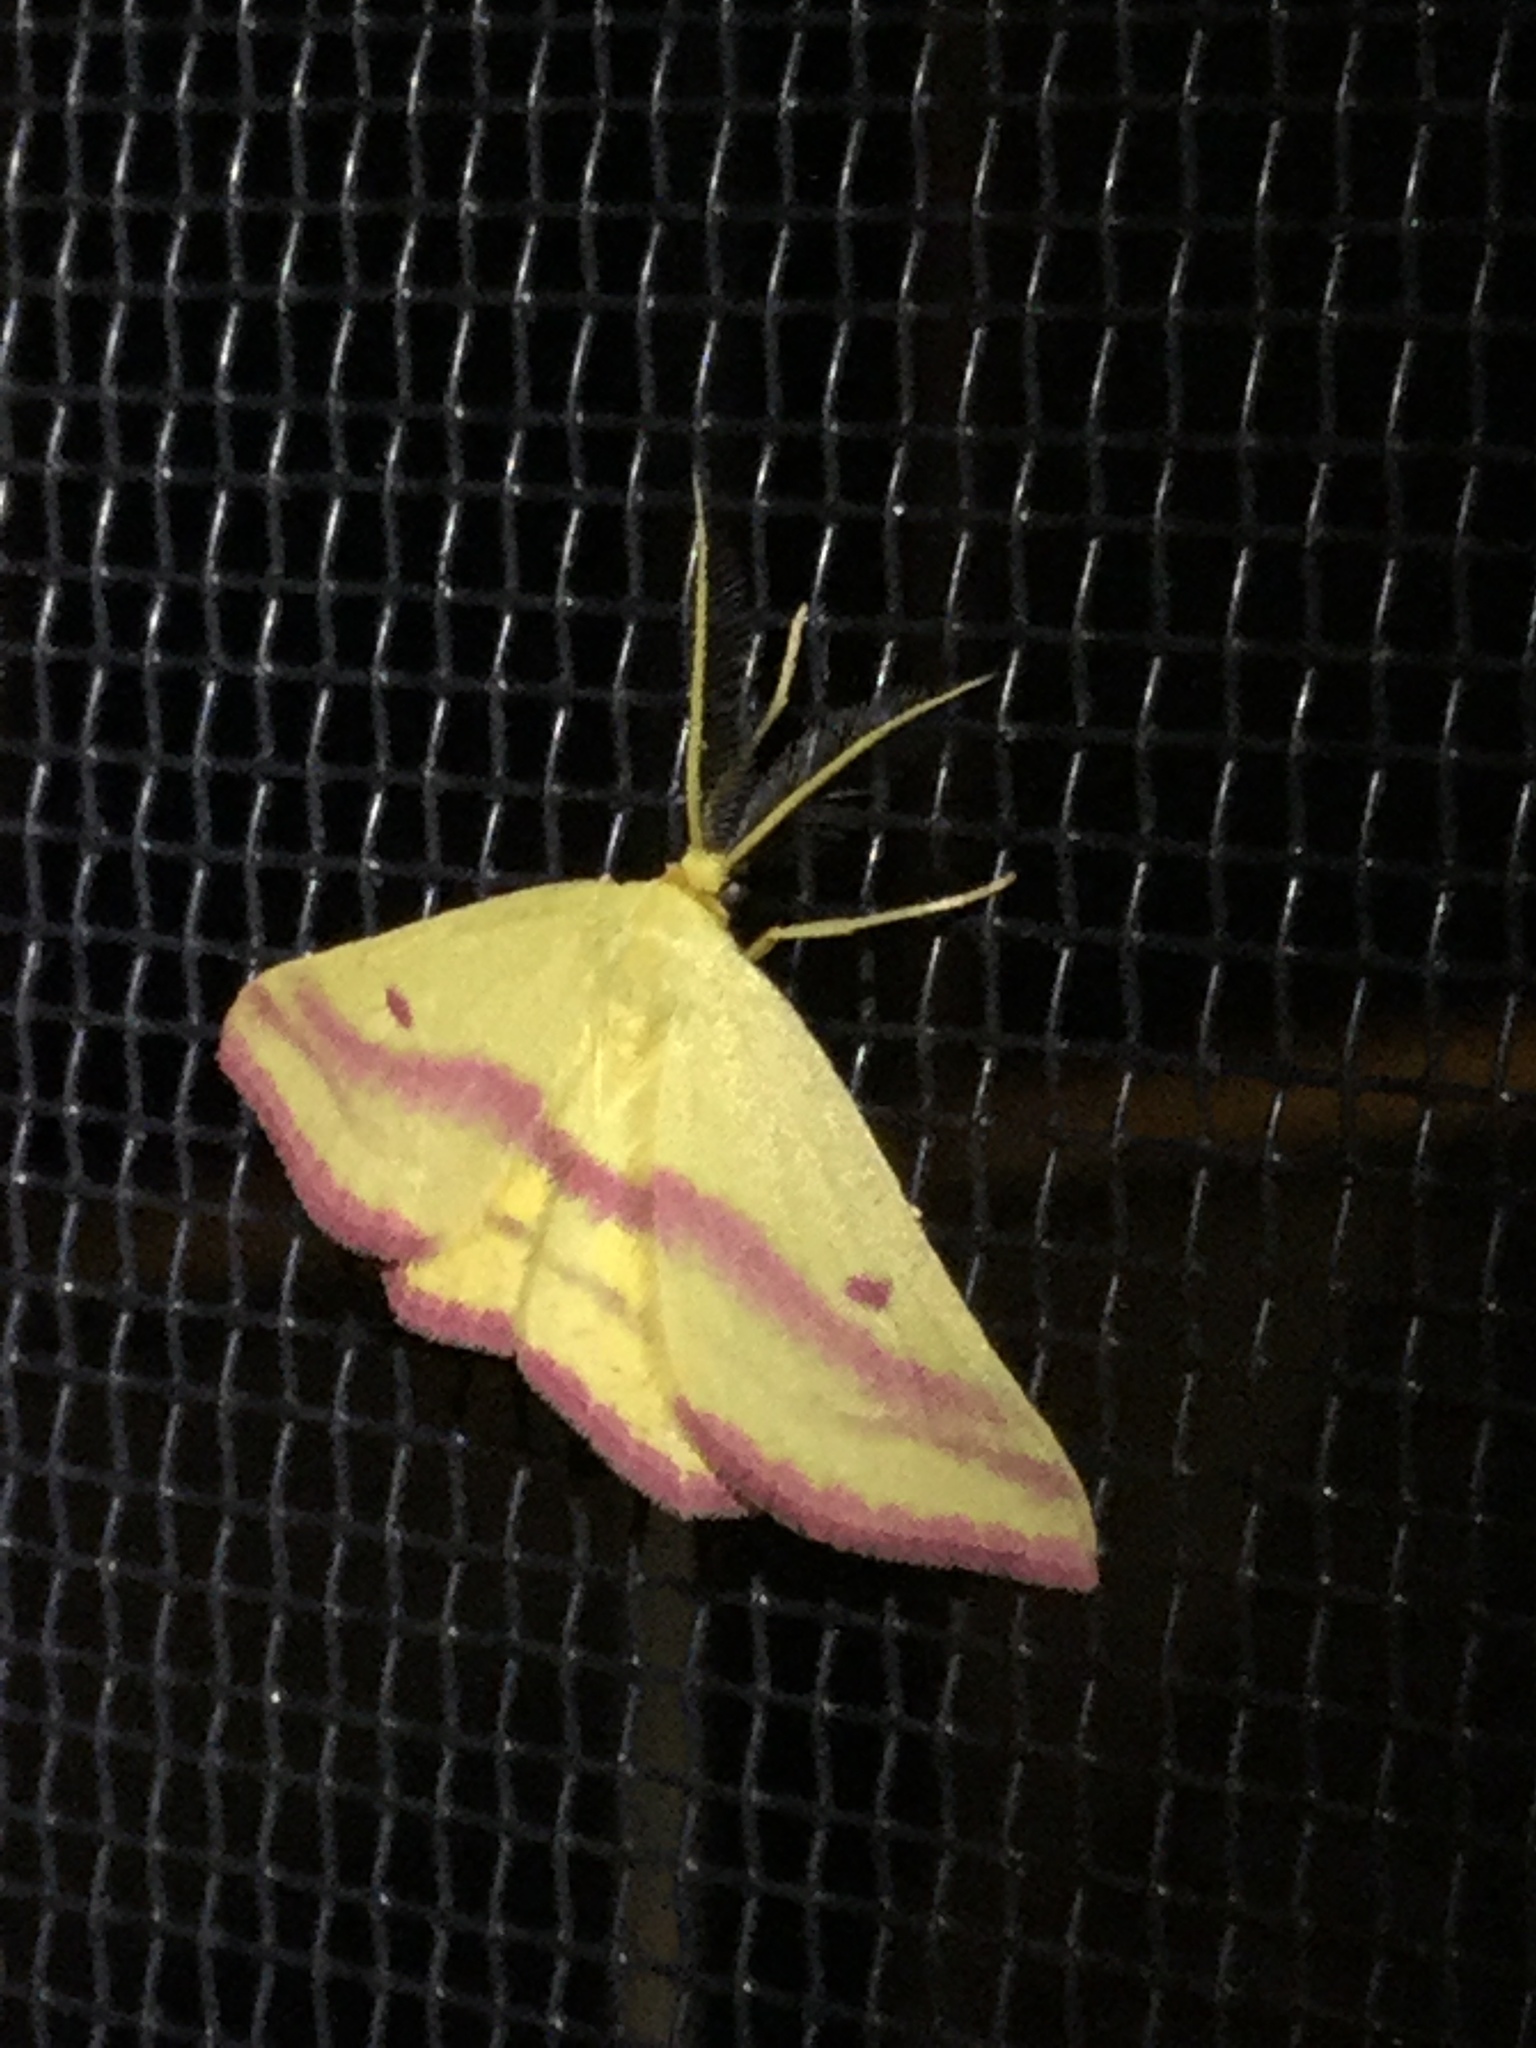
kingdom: Animalia
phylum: Arthropoda
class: Insecta
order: Lepidoptera
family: Geometridae
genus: Haematopis
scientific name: Haematopis grataria
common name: Chickweed geometer
